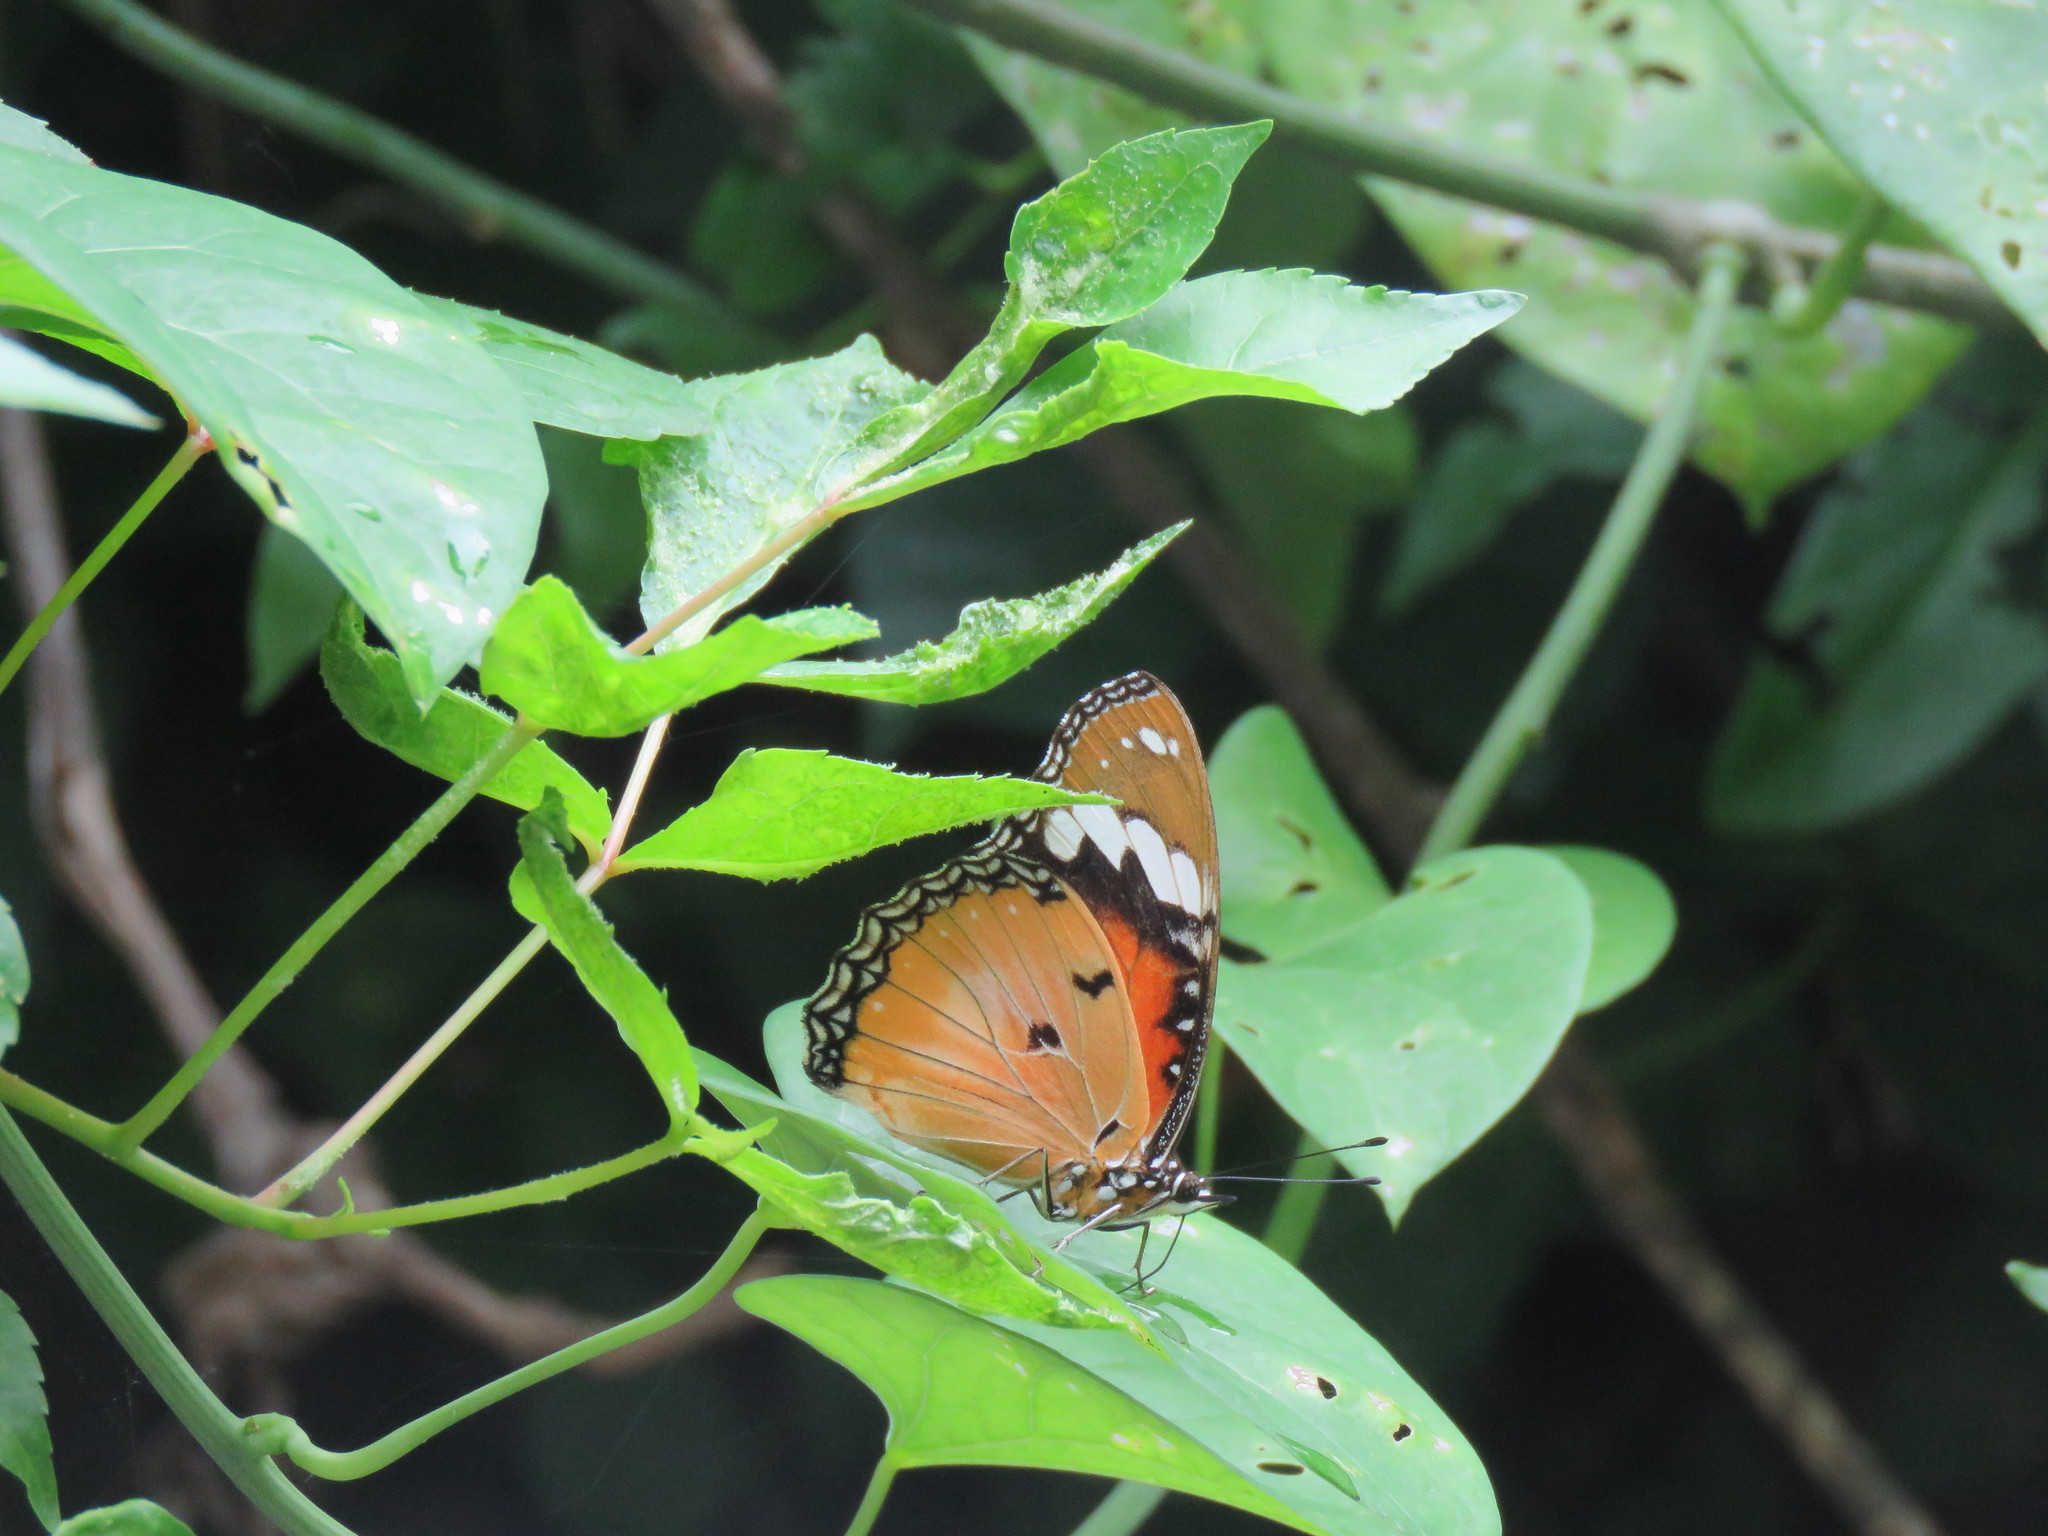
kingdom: Animalia
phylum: Arthropoda
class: Insecta
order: Lepidoptera
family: Nymphalidae
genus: Hypolimnas
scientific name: Hypolimnas misippus
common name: False plain tiger
